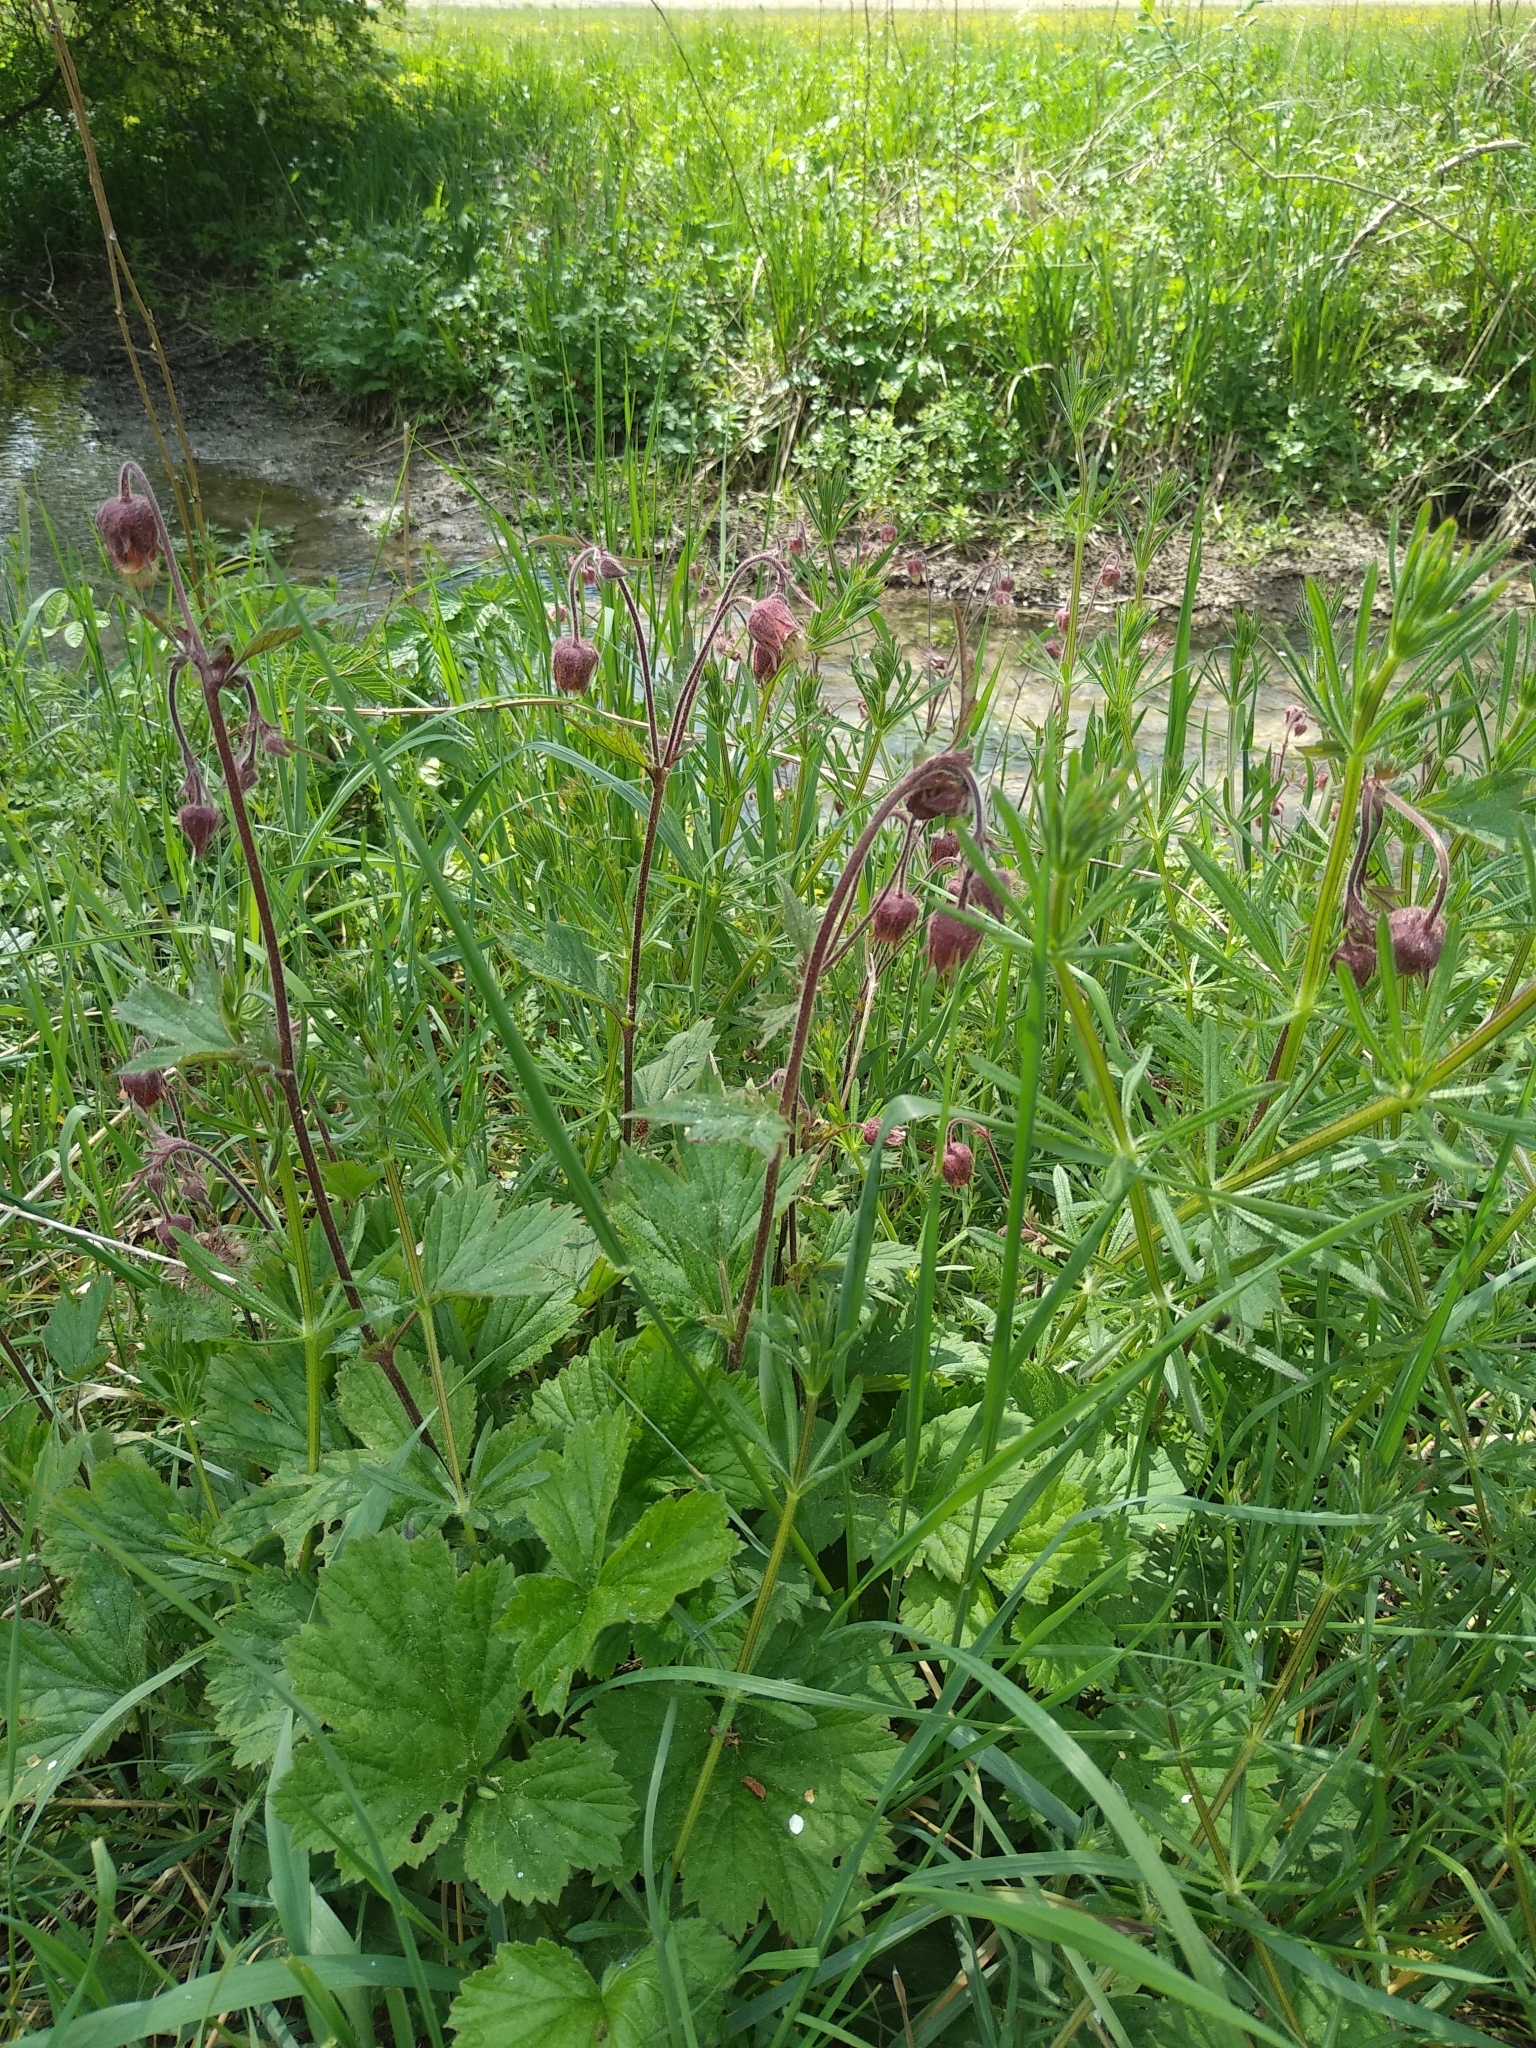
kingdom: Plantae
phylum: Tracheophyta
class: Magnoliopsida
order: Rosales
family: Rosaceae
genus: Geum
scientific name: Geum rivale
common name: Water avens
